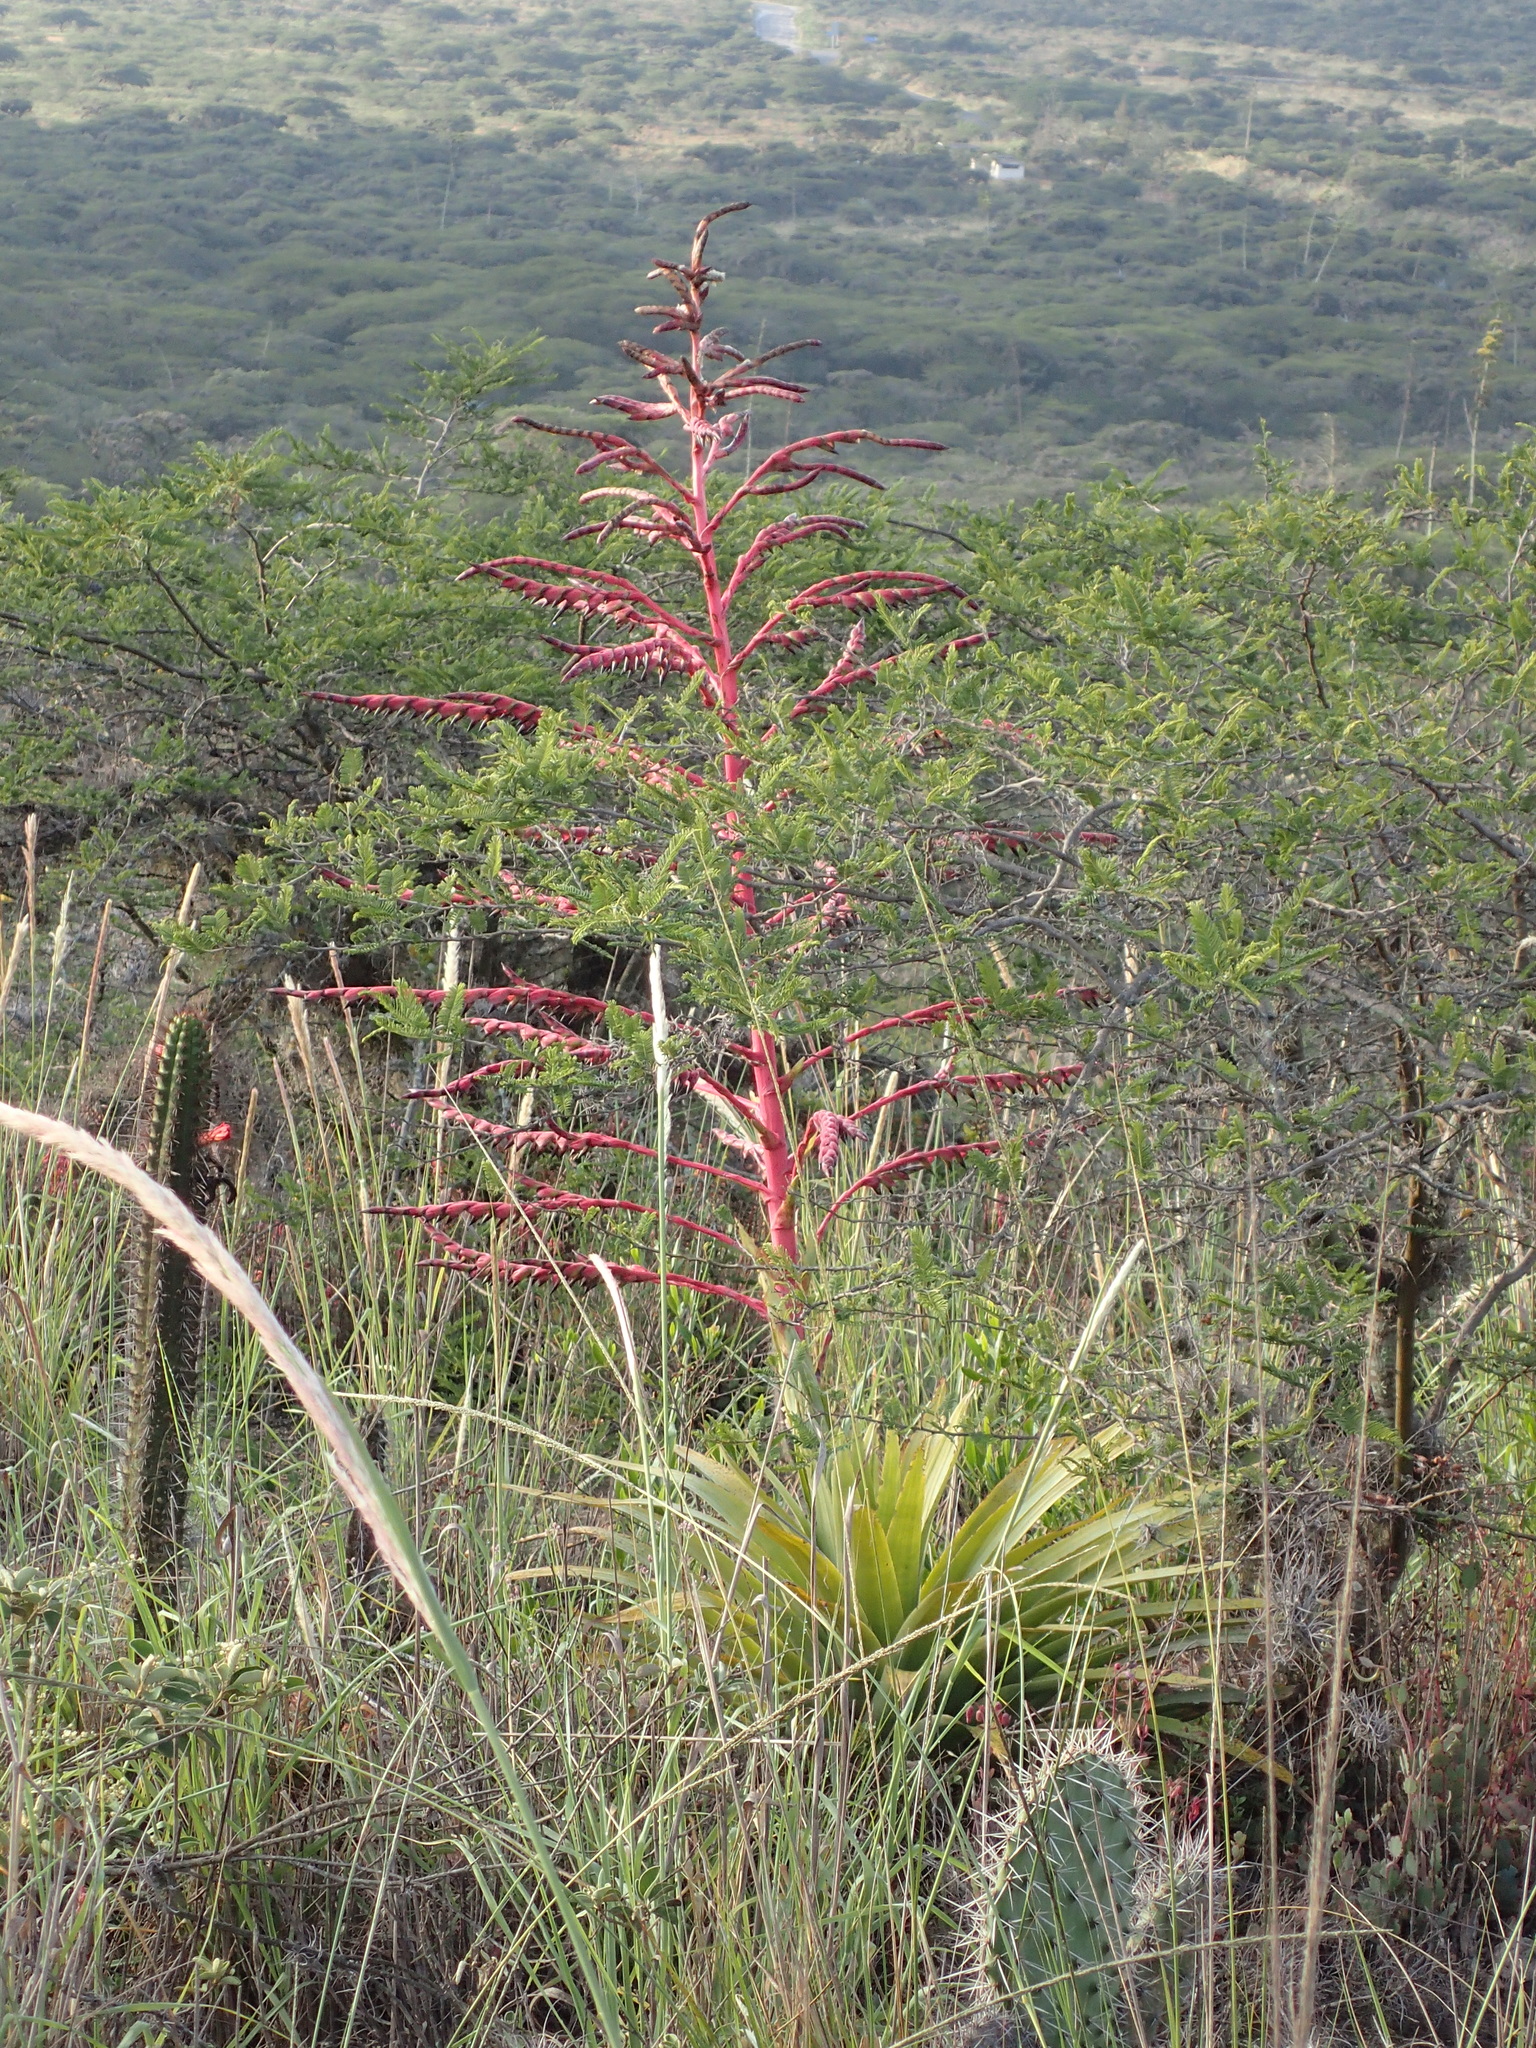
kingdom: Plantae
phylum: Tracheophyta
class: Liliopsida
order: Poales
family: Bromeliaceae
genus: Tillandsia
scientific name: Tillandsia secunda
